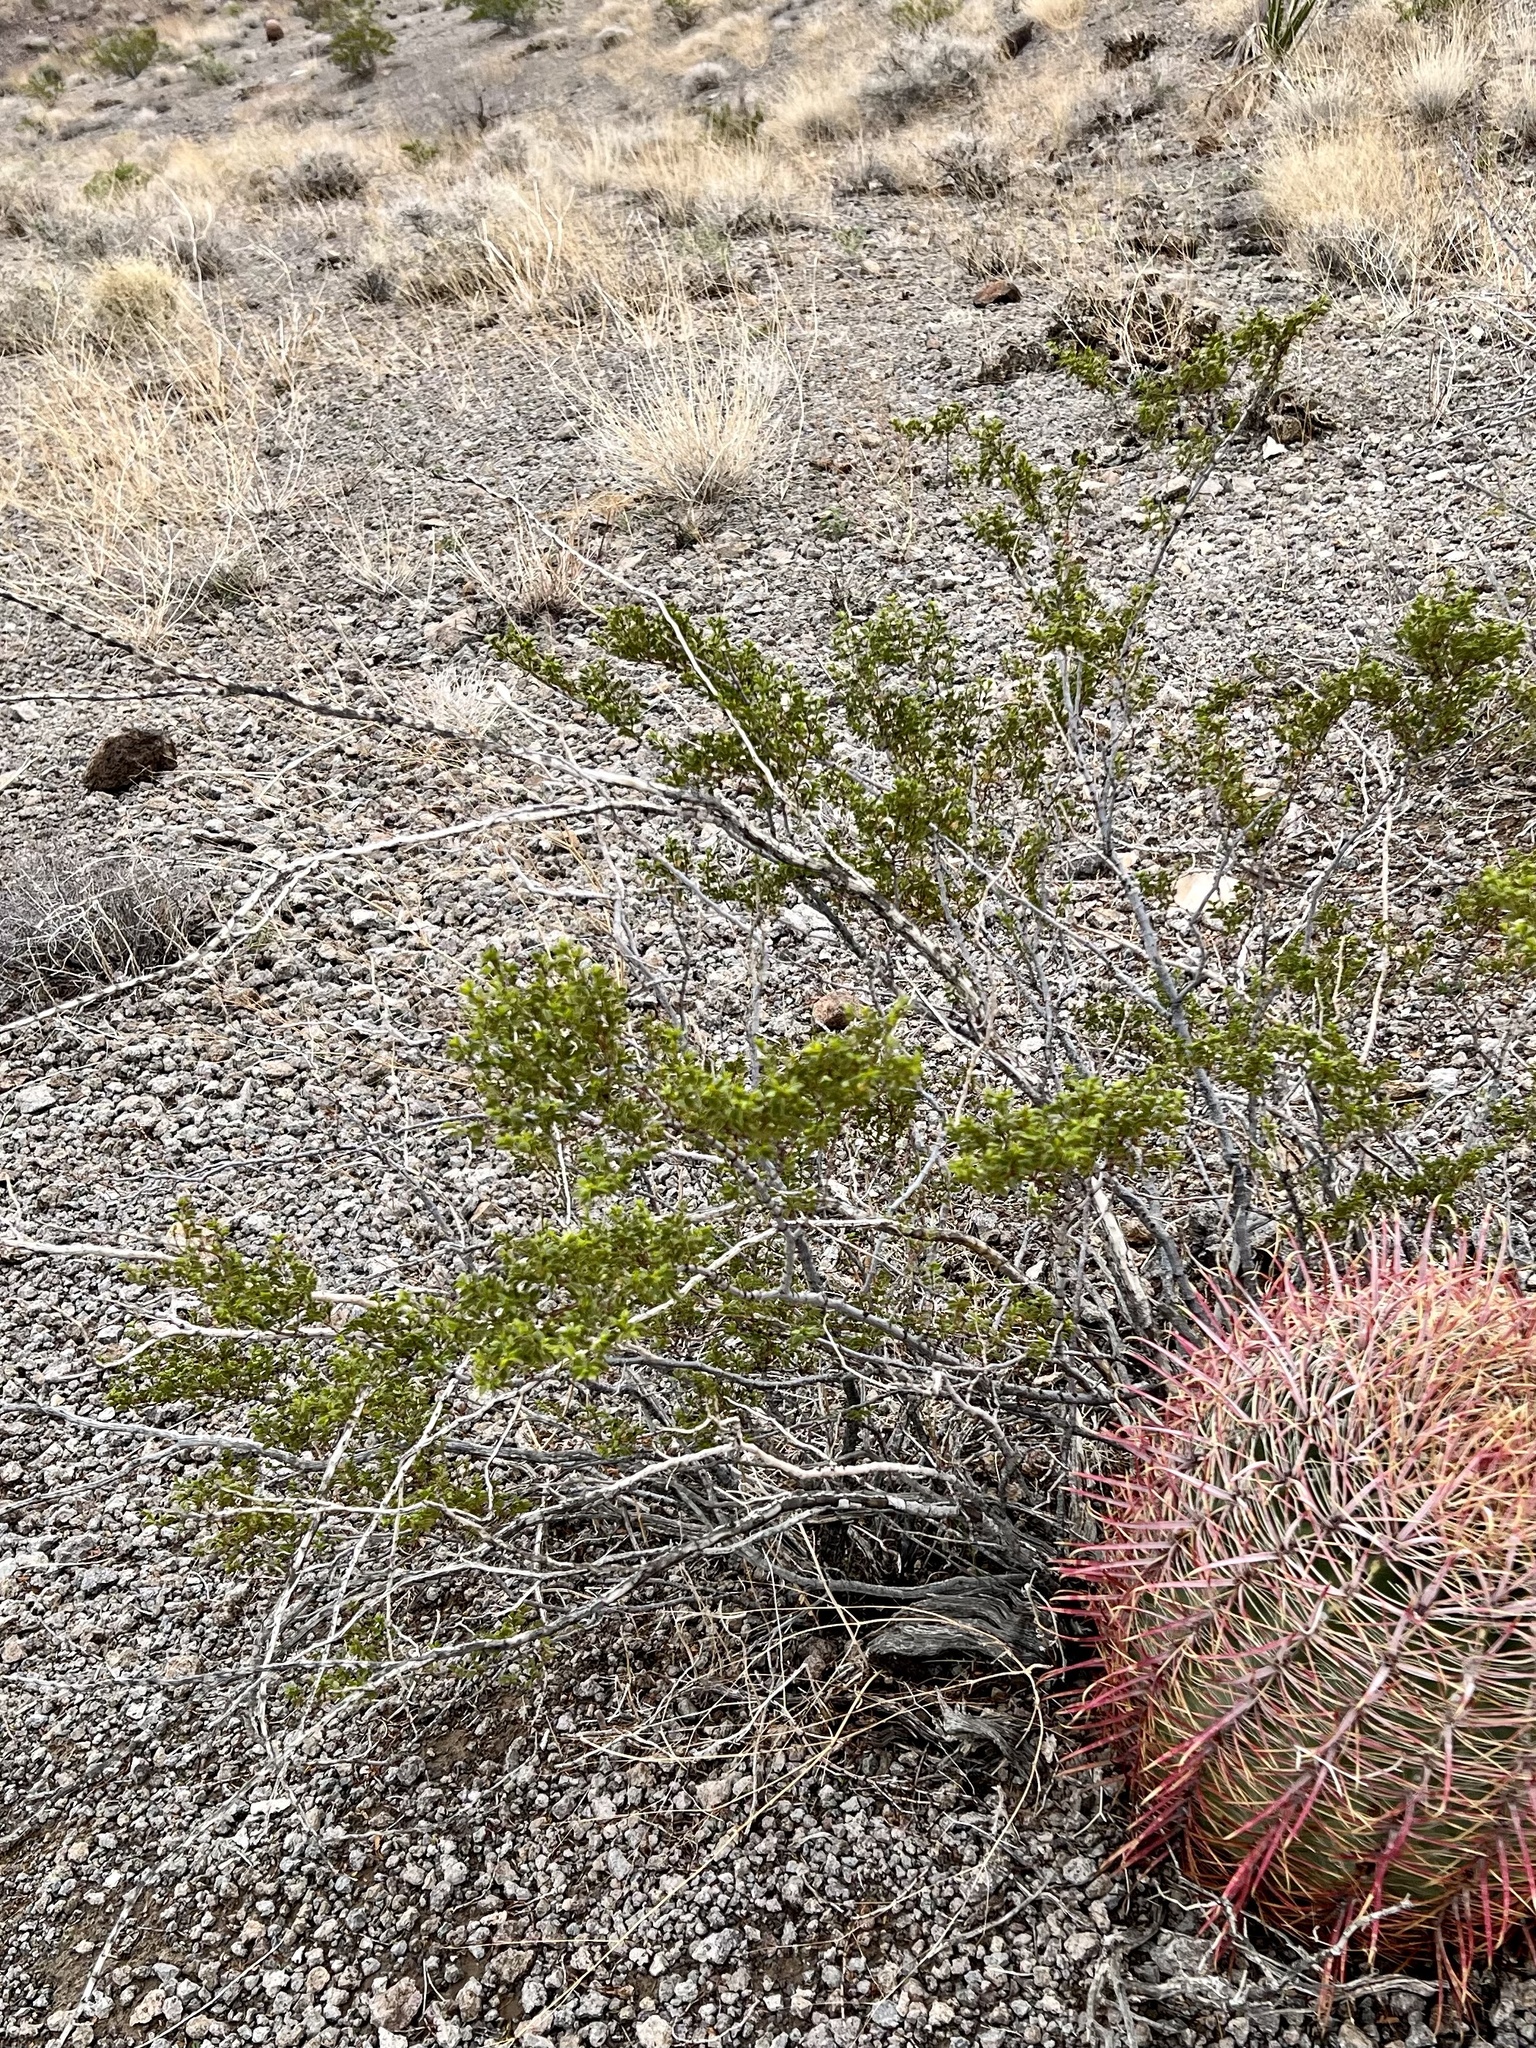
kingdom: Plantae
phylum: Tracheophyta
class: Magnoliopsida
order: Zygophyllales
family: Zygophyllaceae
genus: Larrea
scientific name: Larrea tridentata
